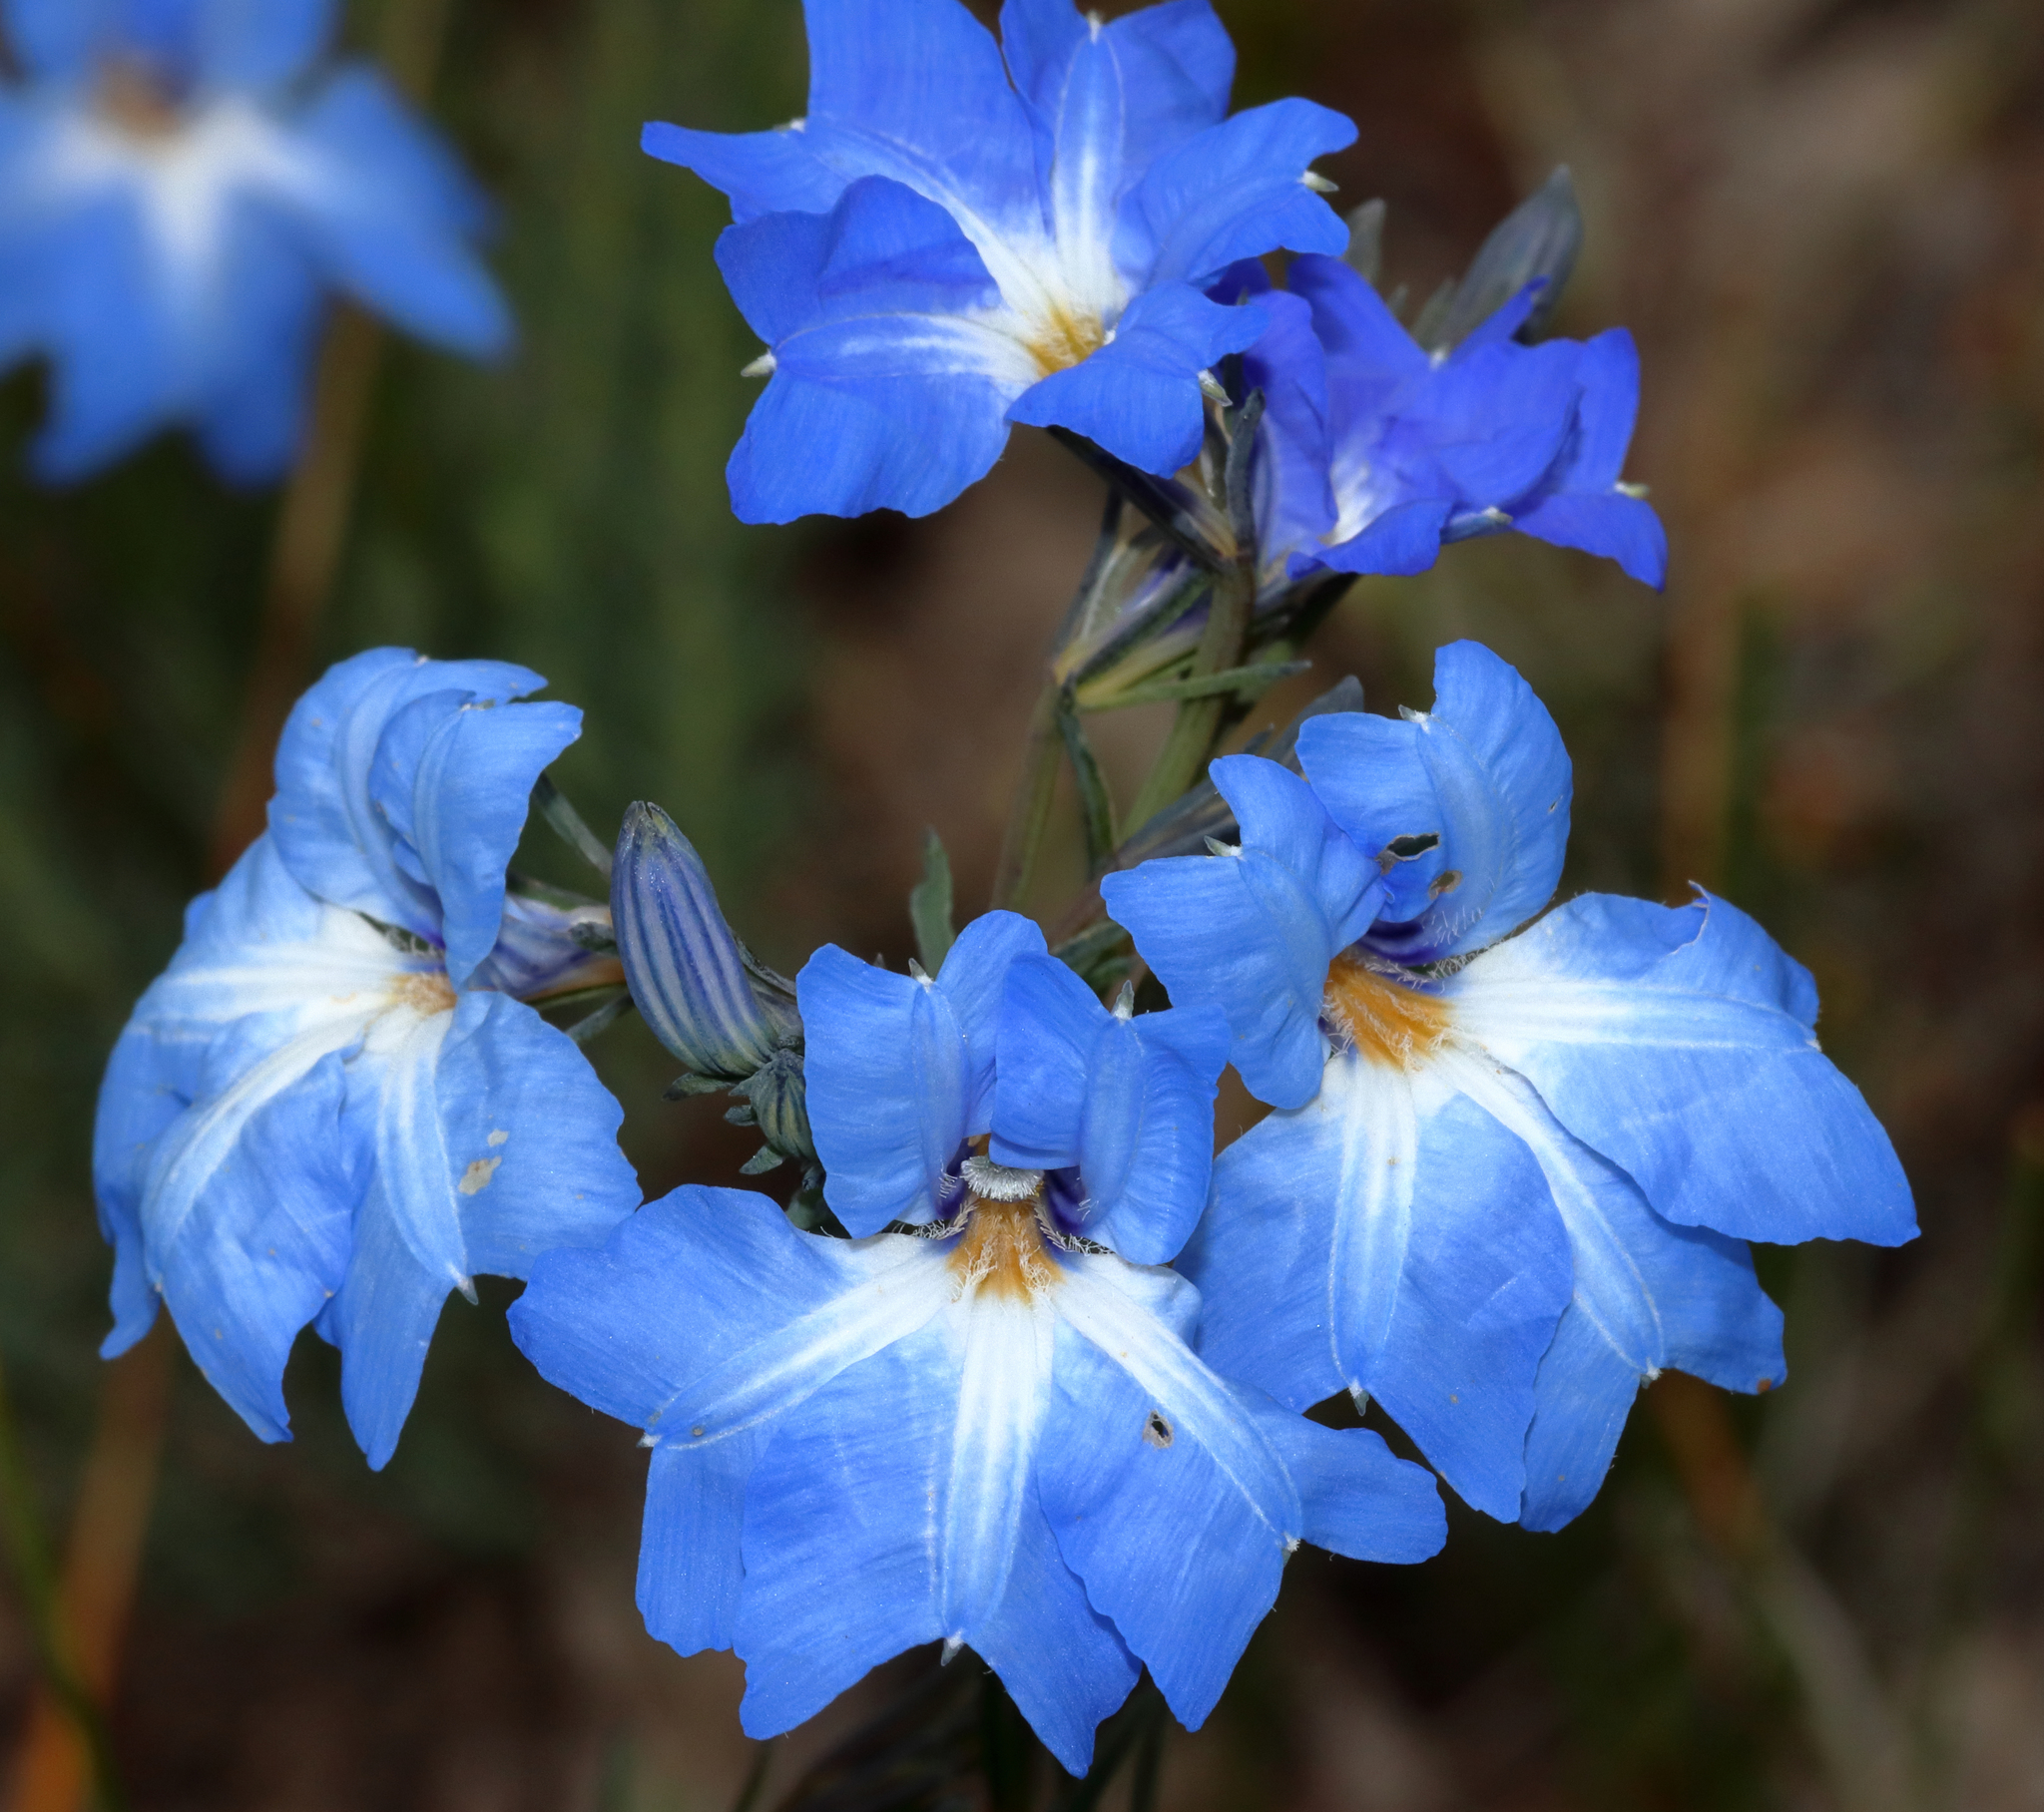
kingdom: Plantae
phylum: Tracheophyta
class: Magnoliopsida
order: Asterales
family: Goodeniaceae
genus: Lechenaultia
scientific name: Lechenaultia biloba
